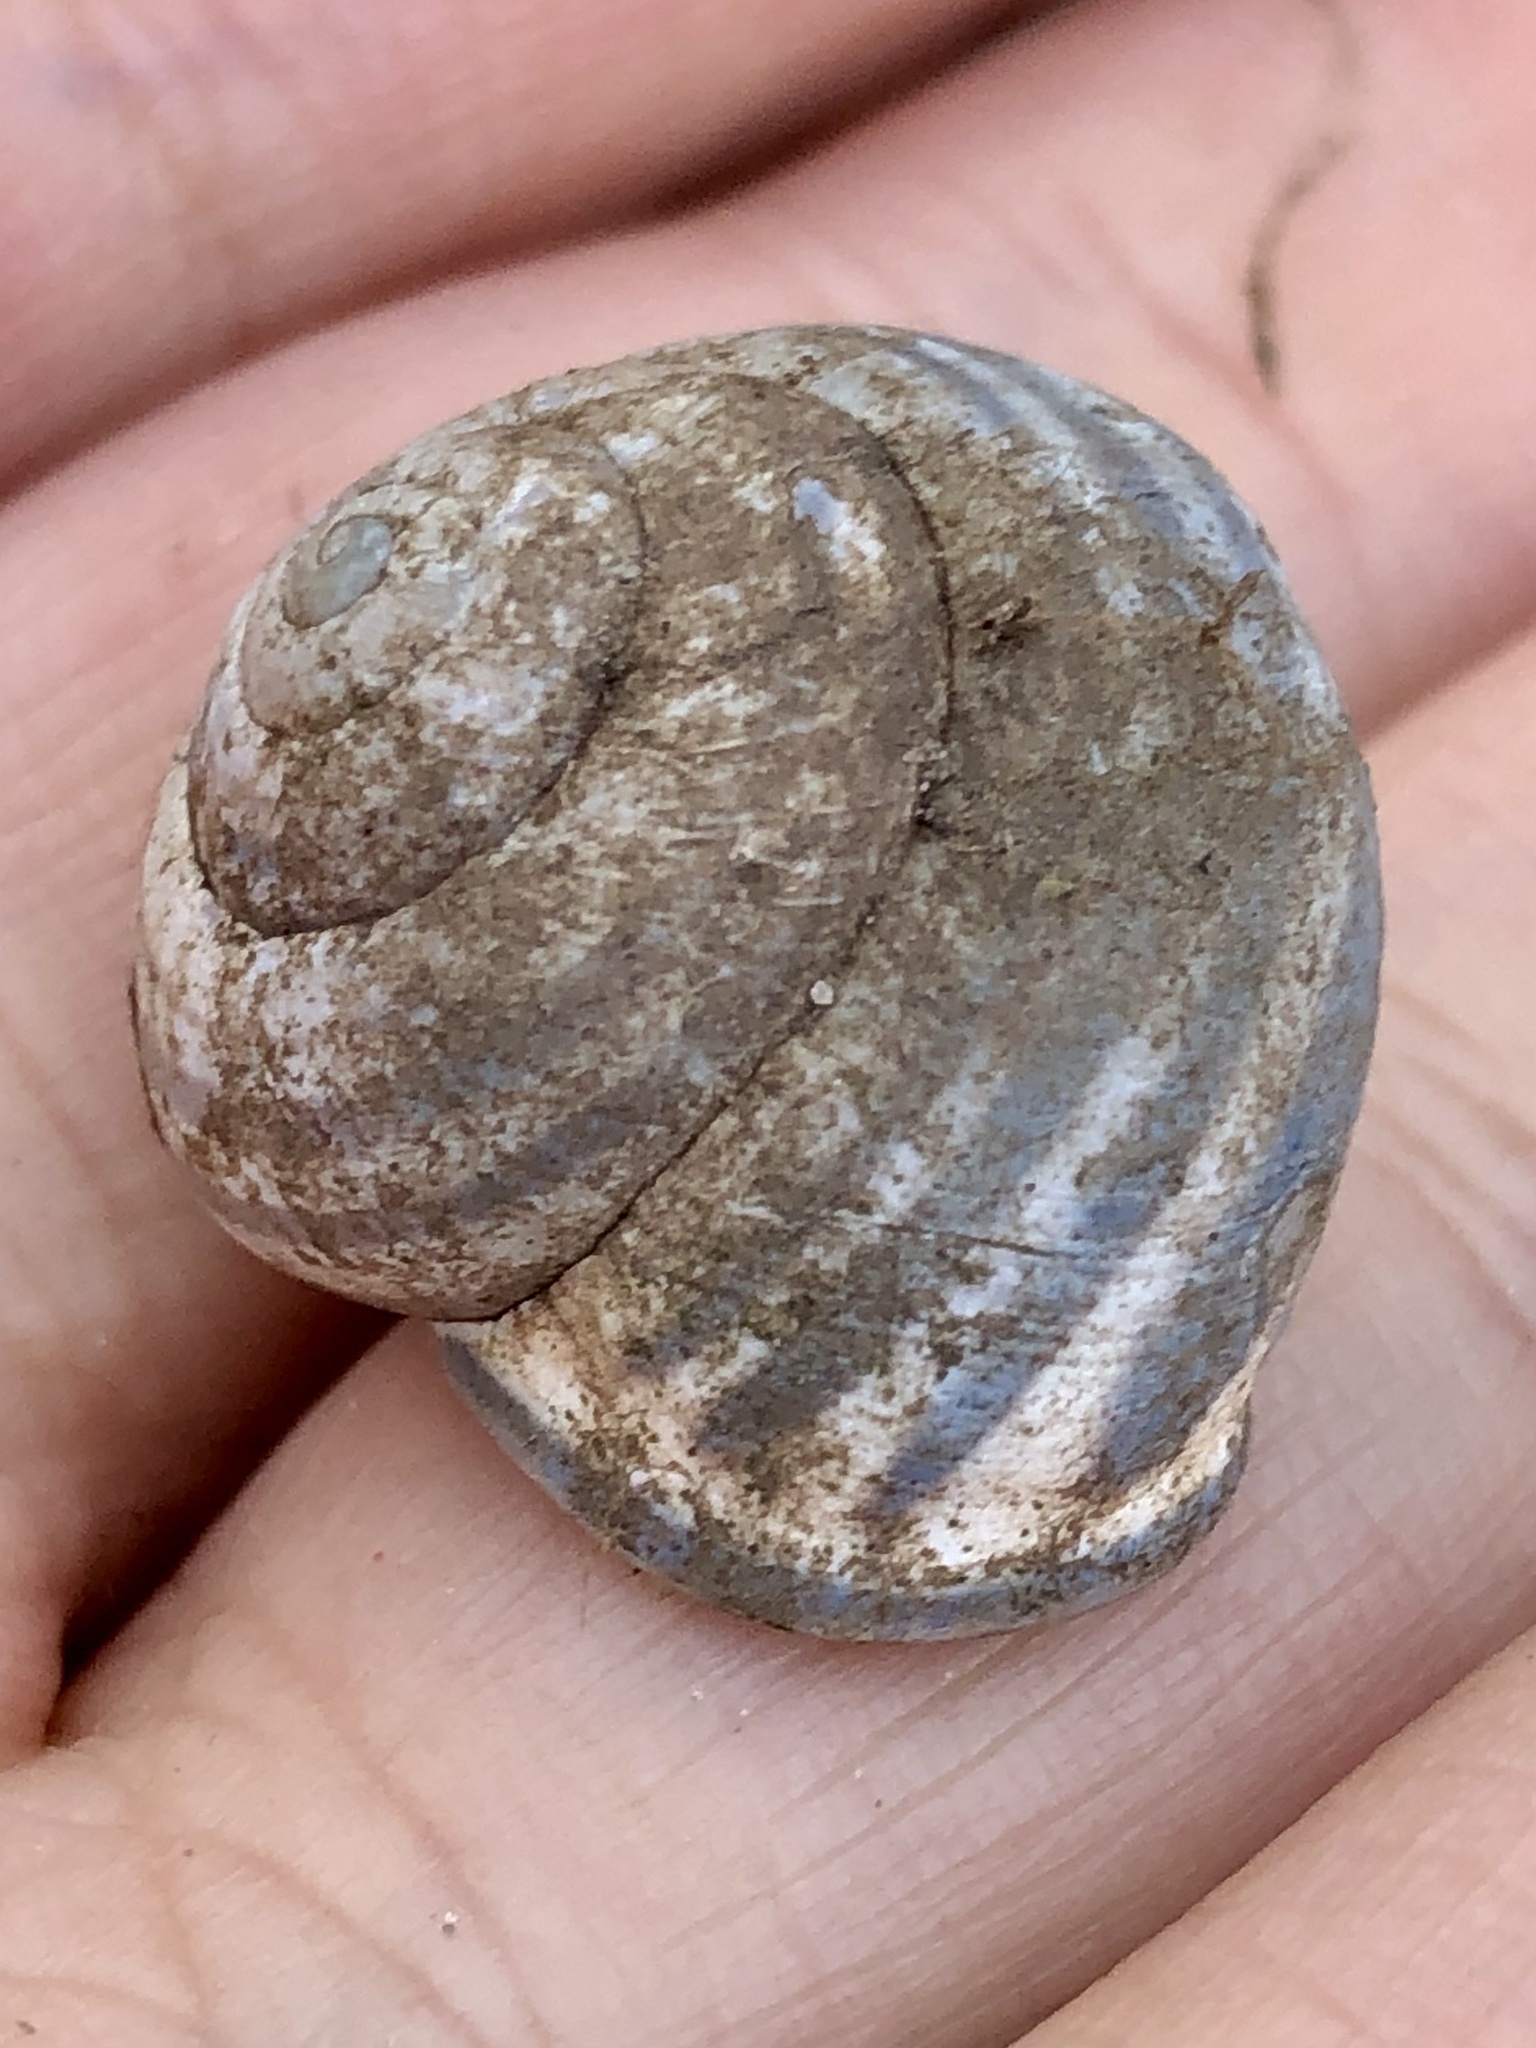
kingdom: Animalia
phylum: Mollusca
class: Gastropoda
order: Stylommatophora
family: Helicidae
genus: Cepaea
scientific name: Cepaea nemoralis
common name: Grovesnail
